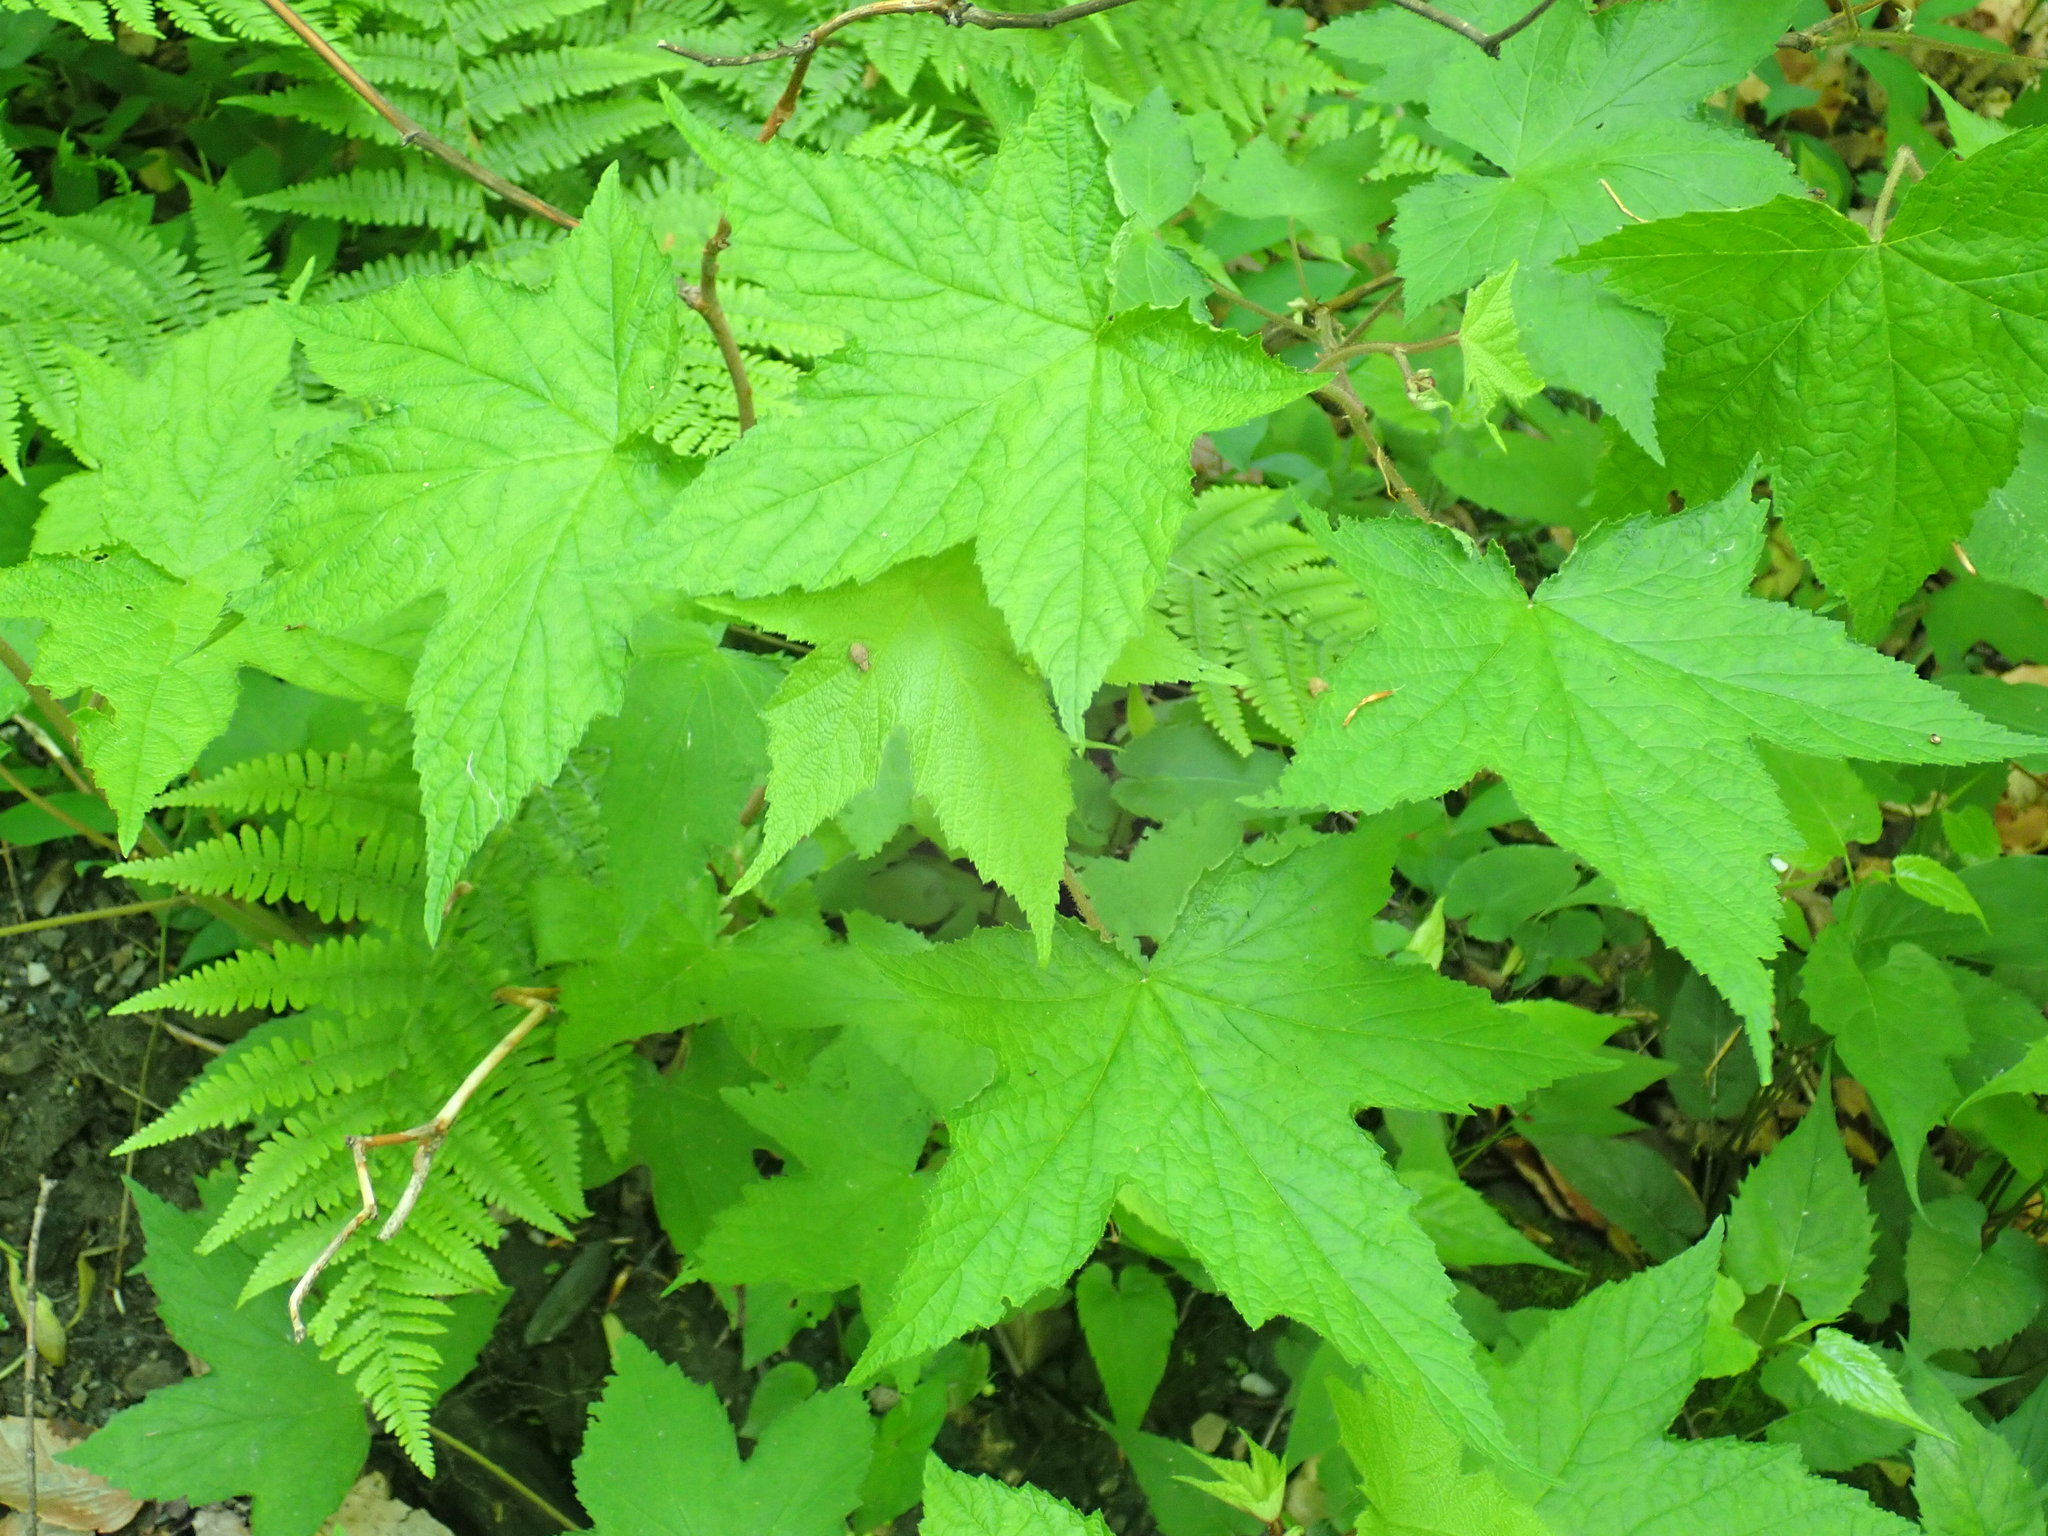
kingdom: Plantae
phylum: Tracheophyta
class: Magnoliopsida
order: Rosales
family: Rosaceae
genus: Rubus
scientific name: Rubus odoratus
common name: Purple-flowered raspberry
